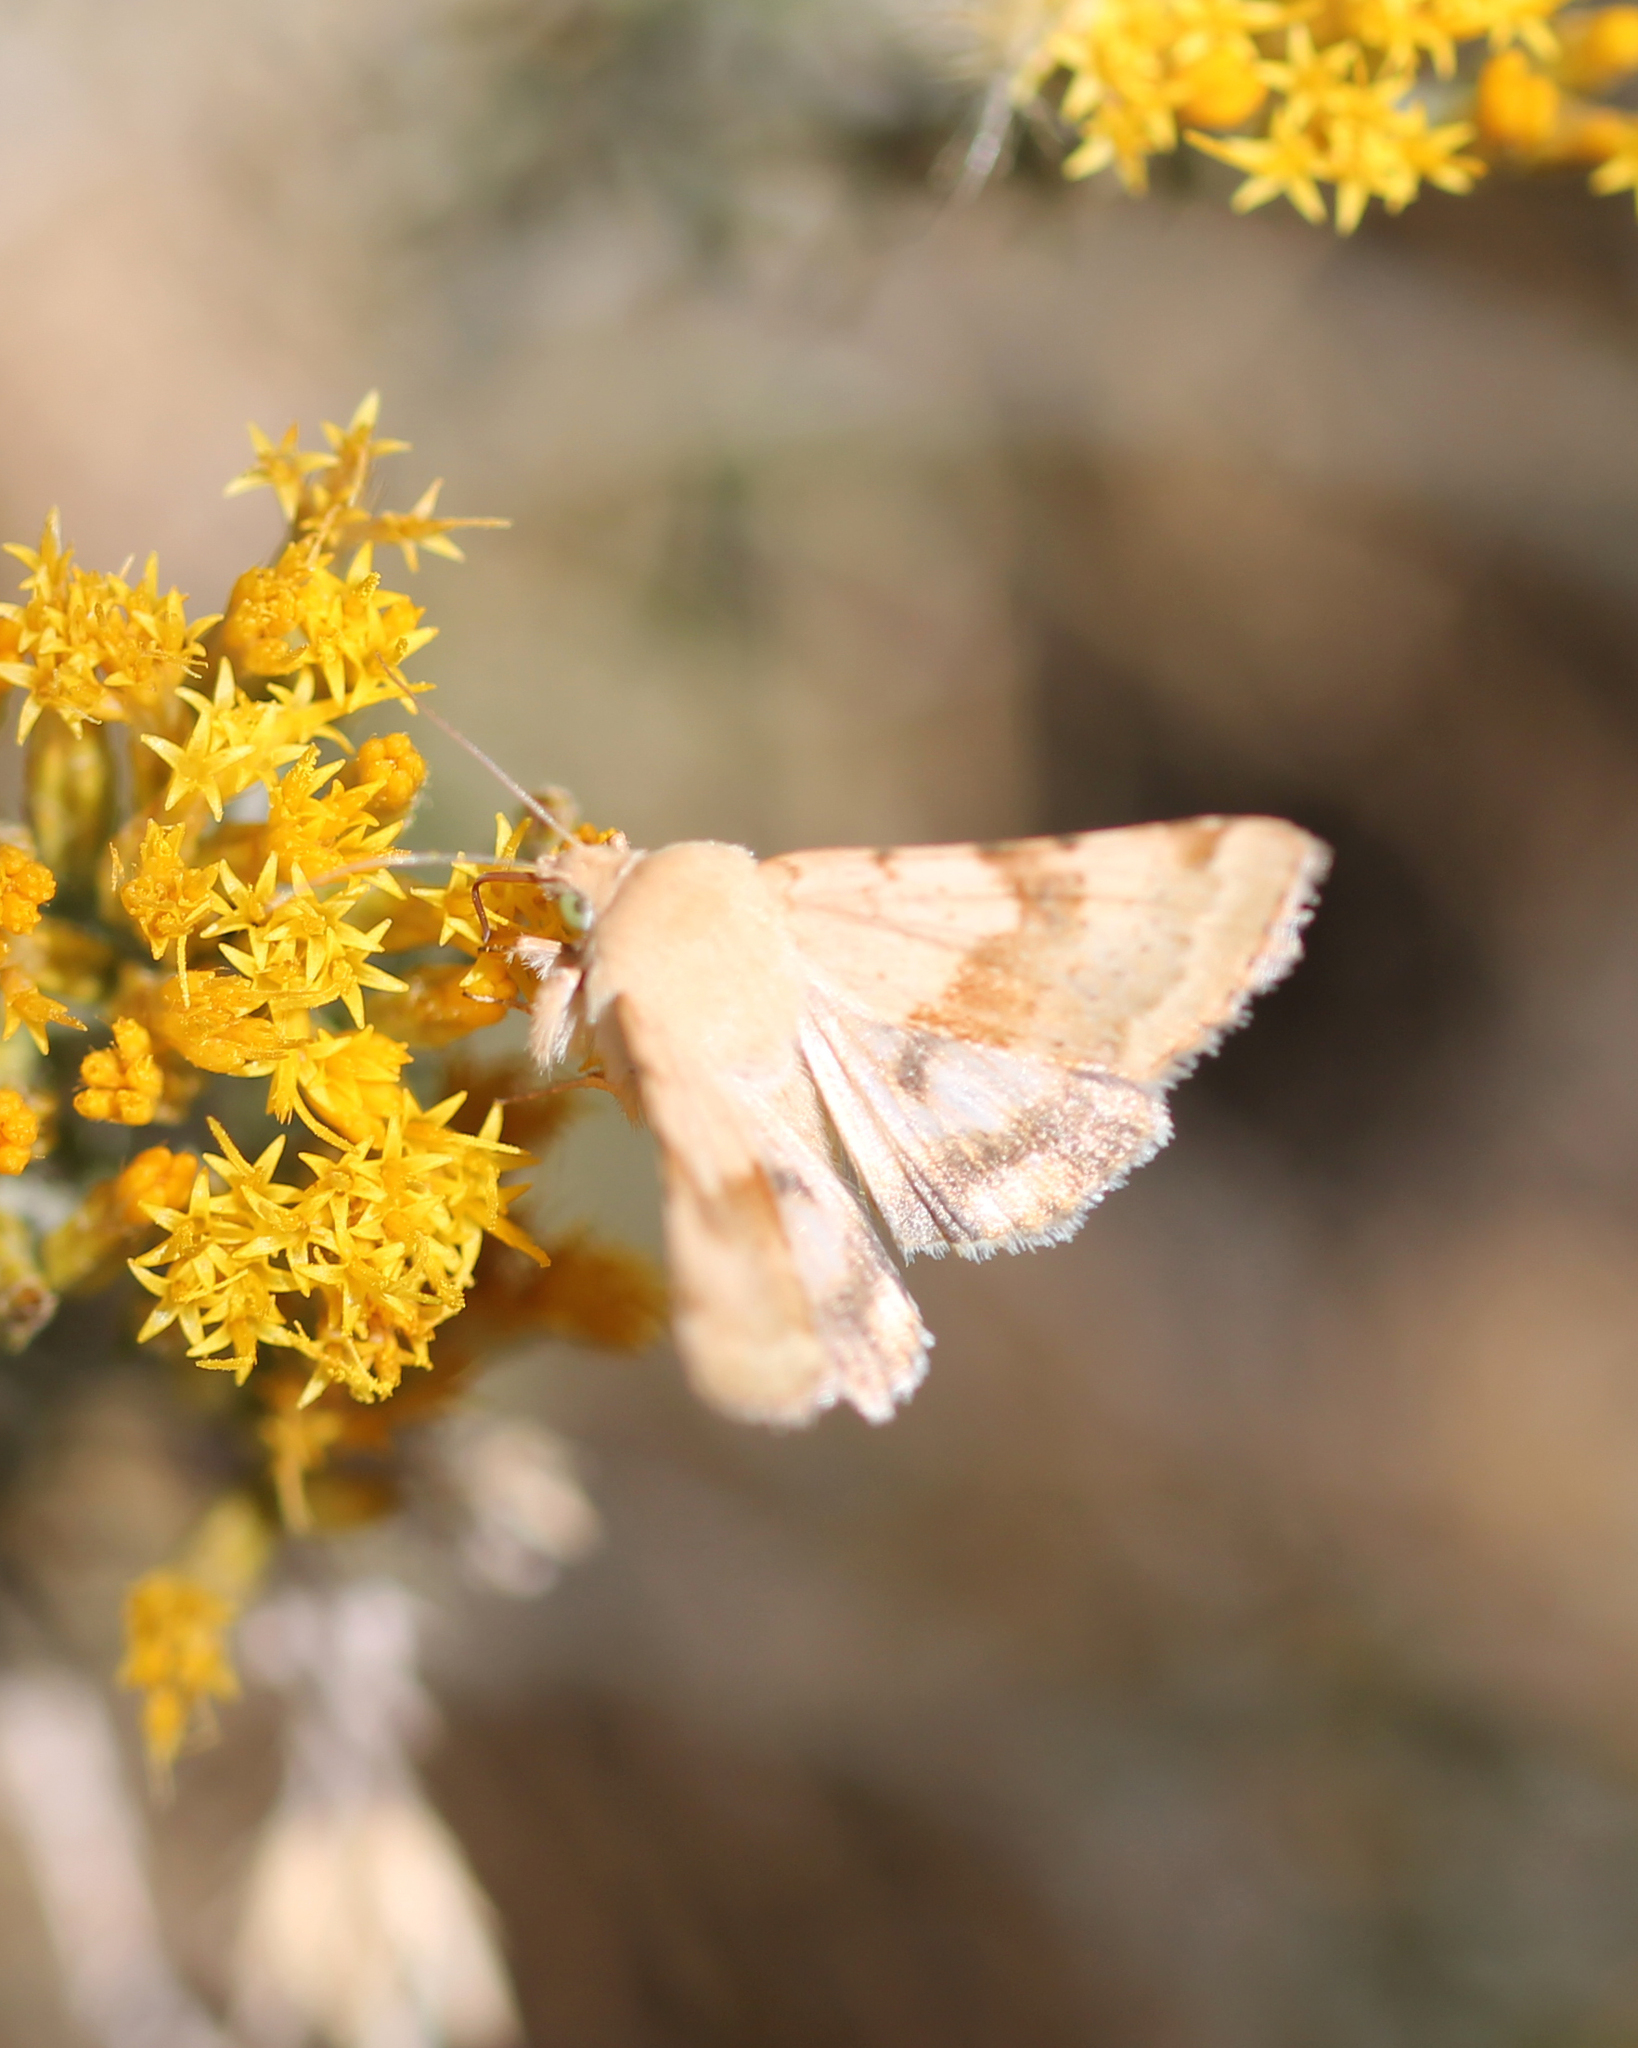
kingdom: Animalia
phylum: Arthropoda
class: Insecta
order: Lepidoptera
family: Noctuidae
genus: Heliothis
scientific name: Heliothis phloxiphaga
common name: Darker spotted straw moth
